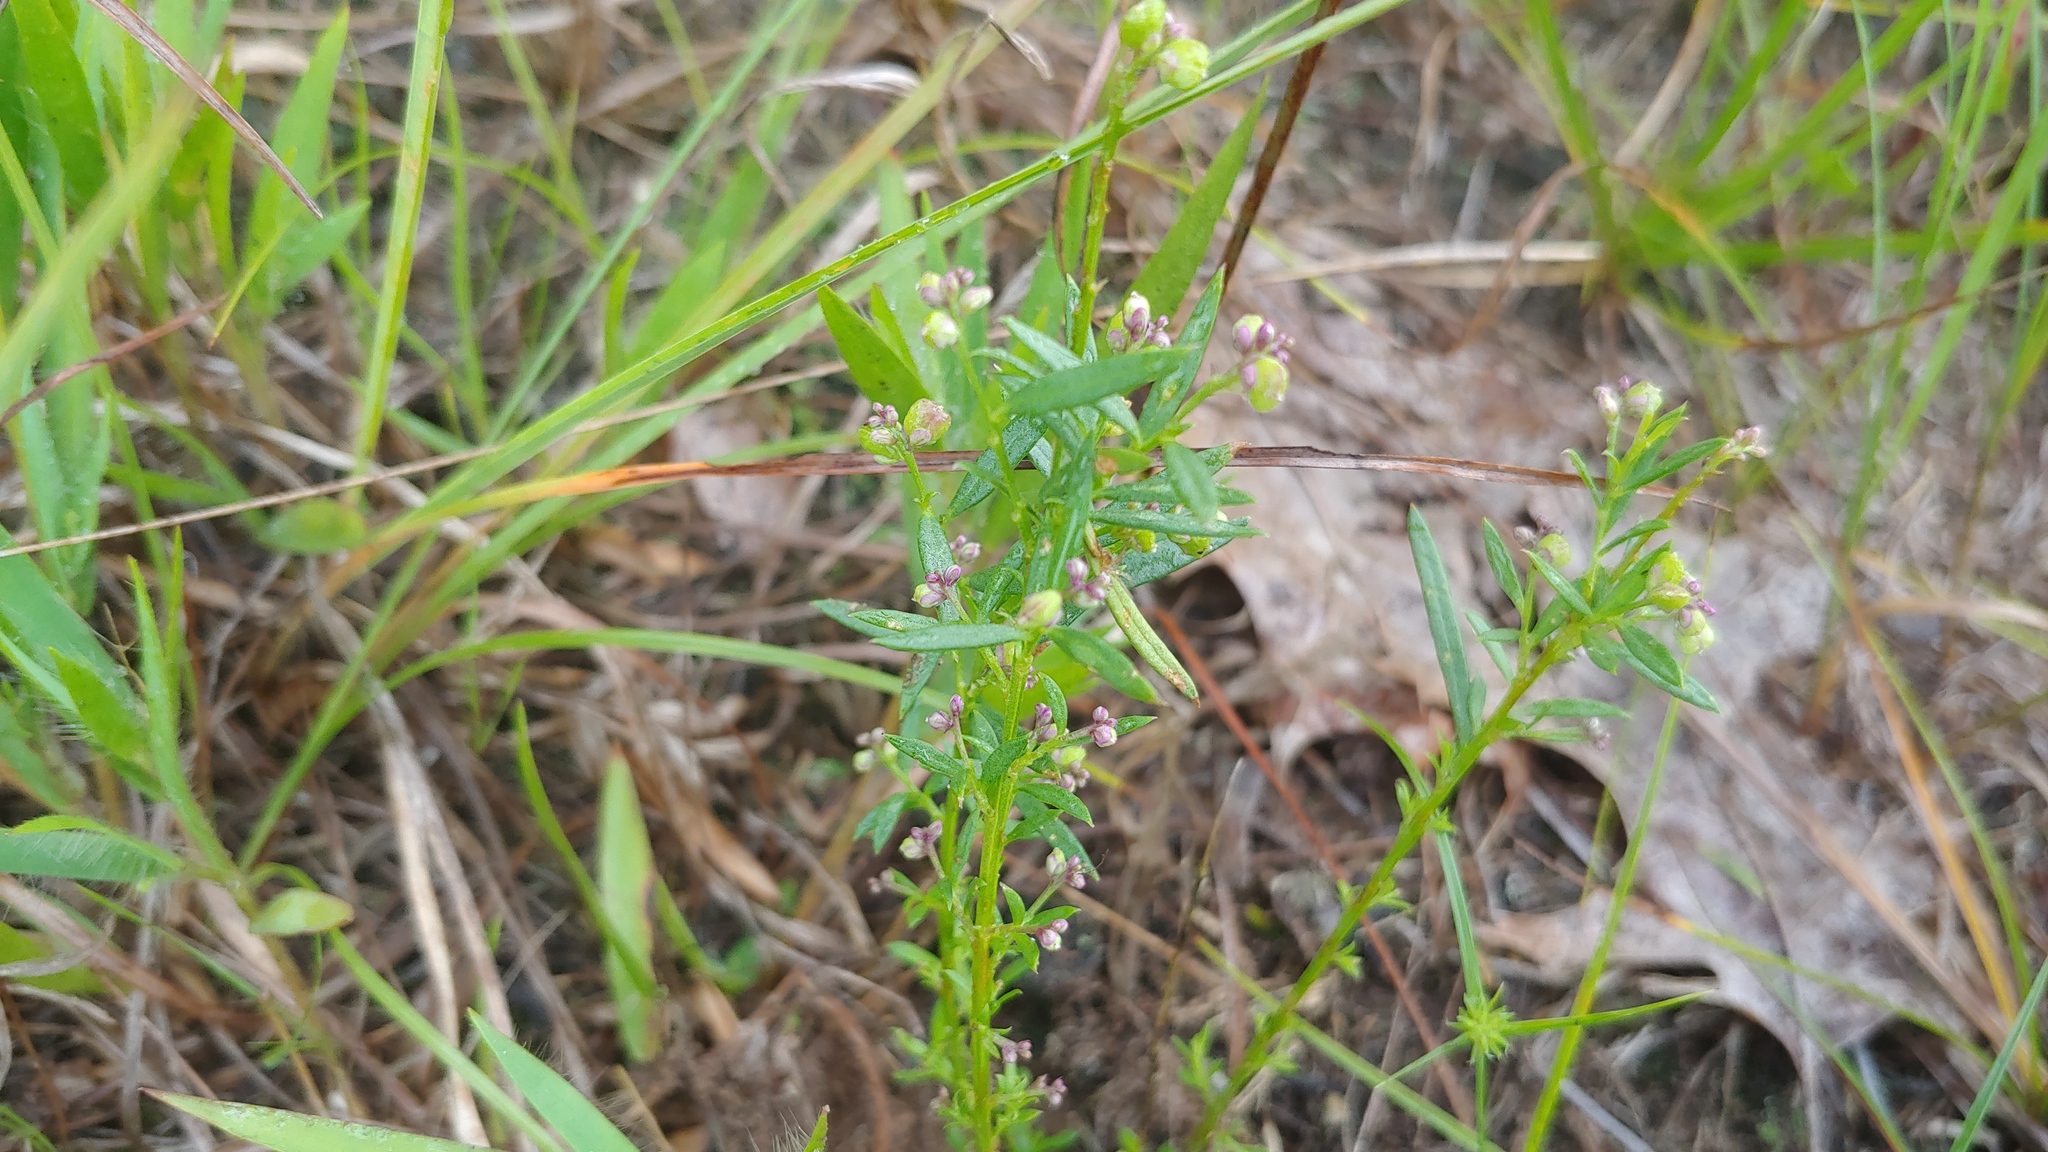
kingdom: Plantae
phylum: Tracheophyta
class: Magnoliopsida
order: Fabales
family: Polygalaceae
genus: Polygala
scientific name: Polygala polygama
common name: Bitter milkwort
